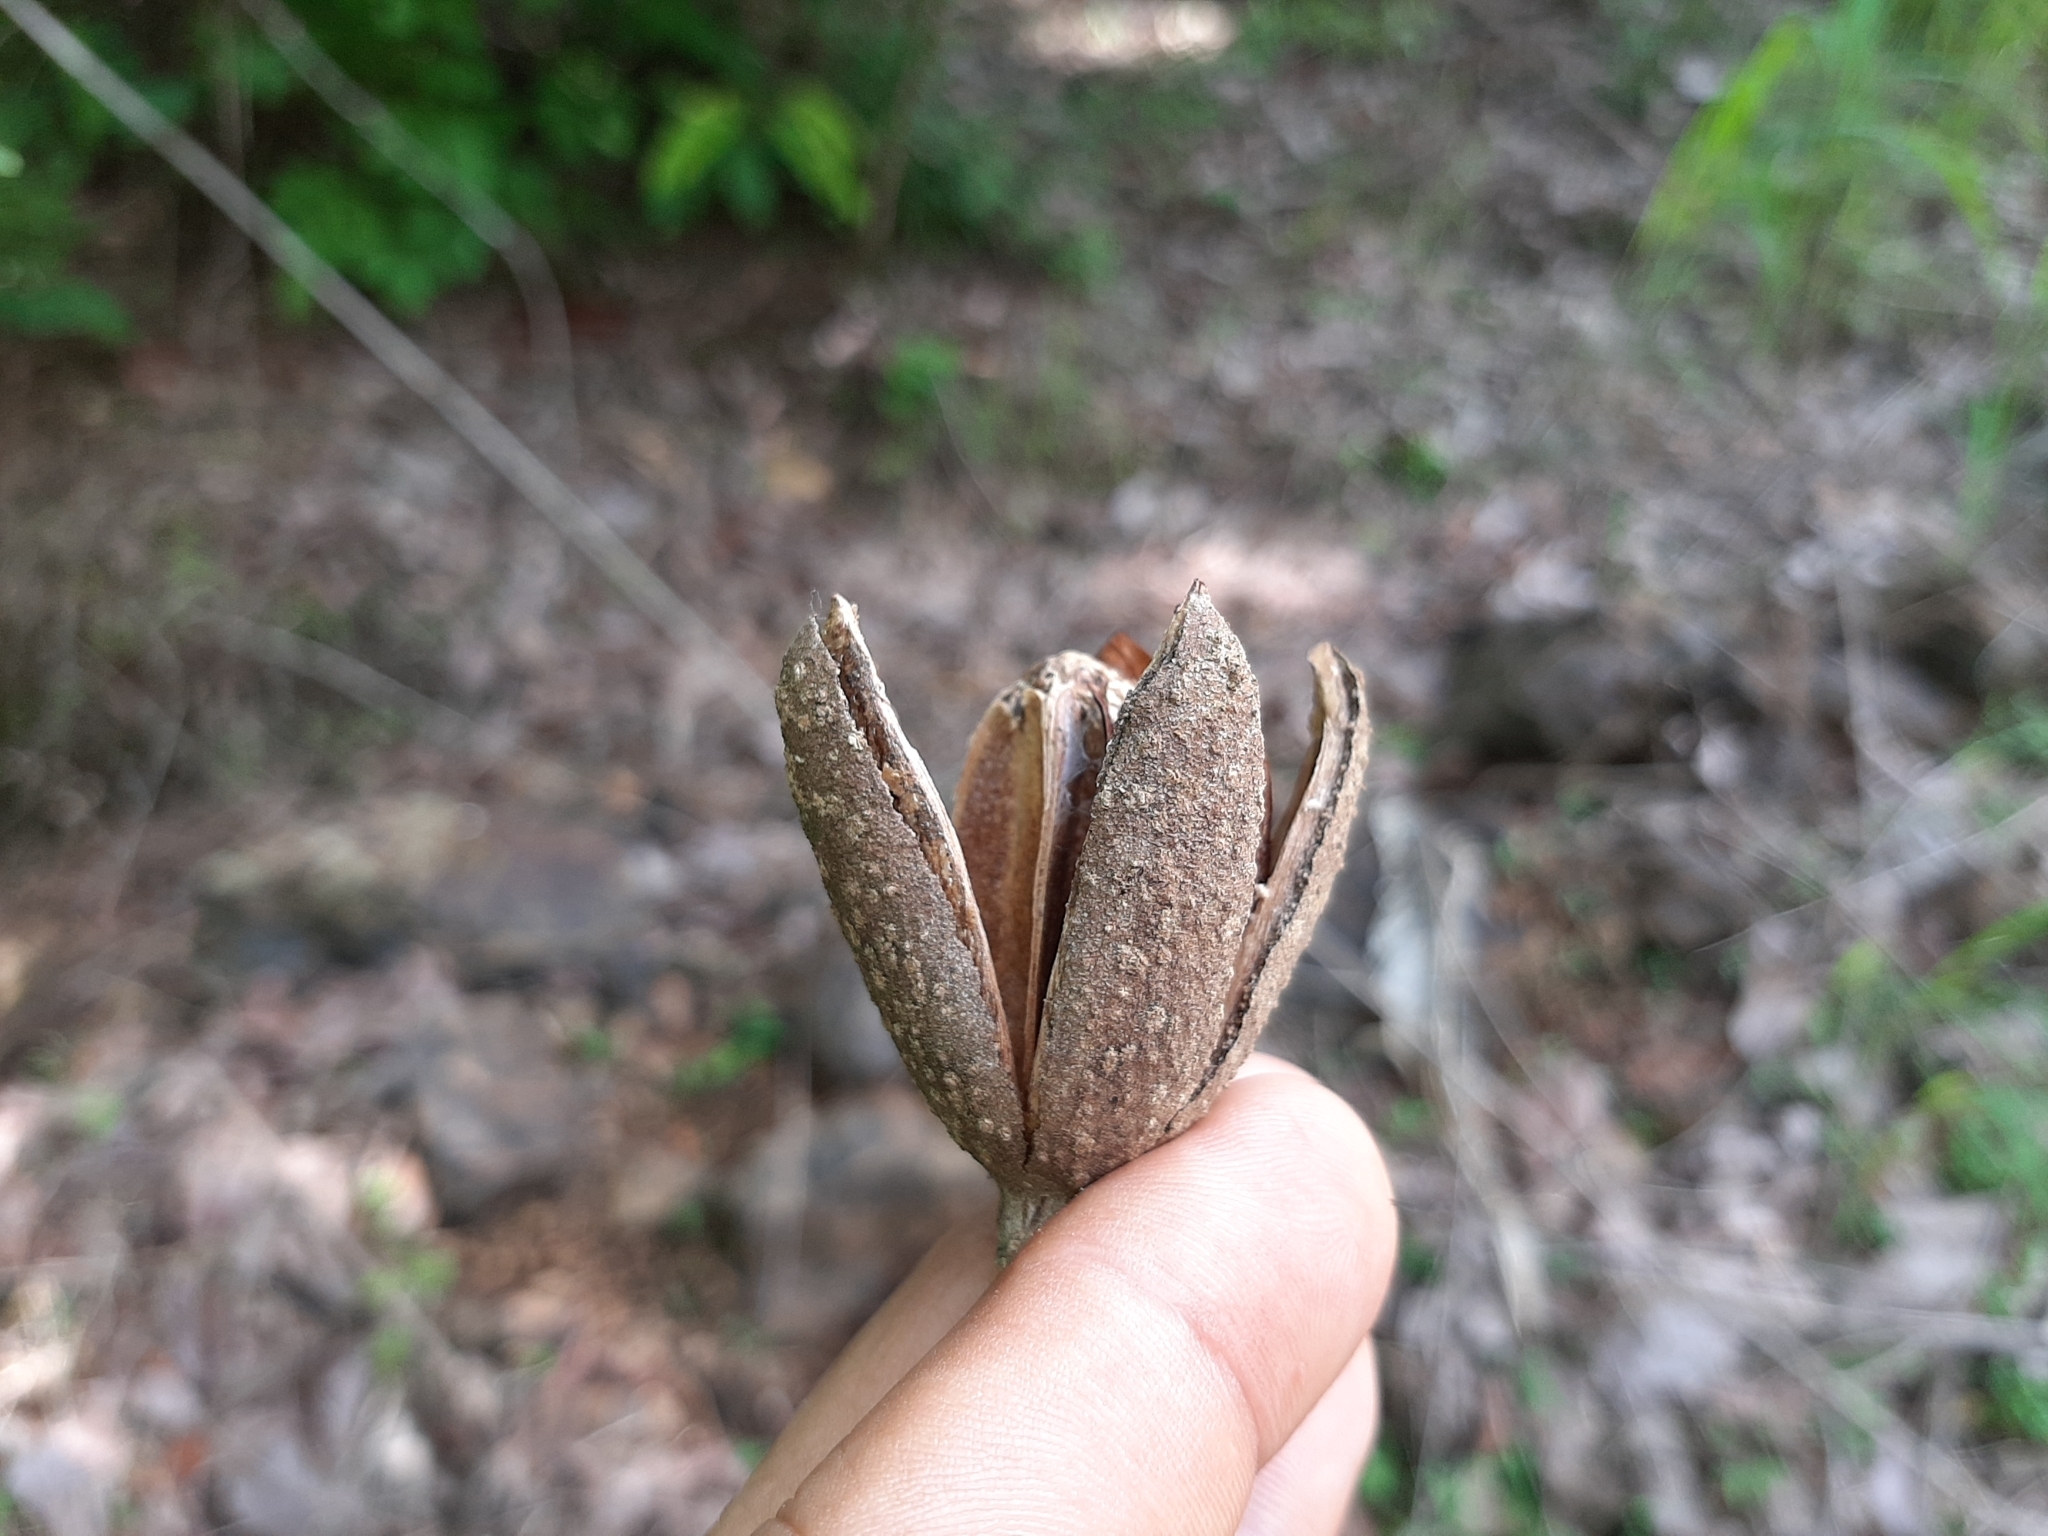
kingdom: Plantae
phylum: Tracheophyta
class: Magnoliopsida
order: Sapindales
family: Meliaceae
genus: Cedrela
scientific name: Cedrela odorata
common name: Red cedar
